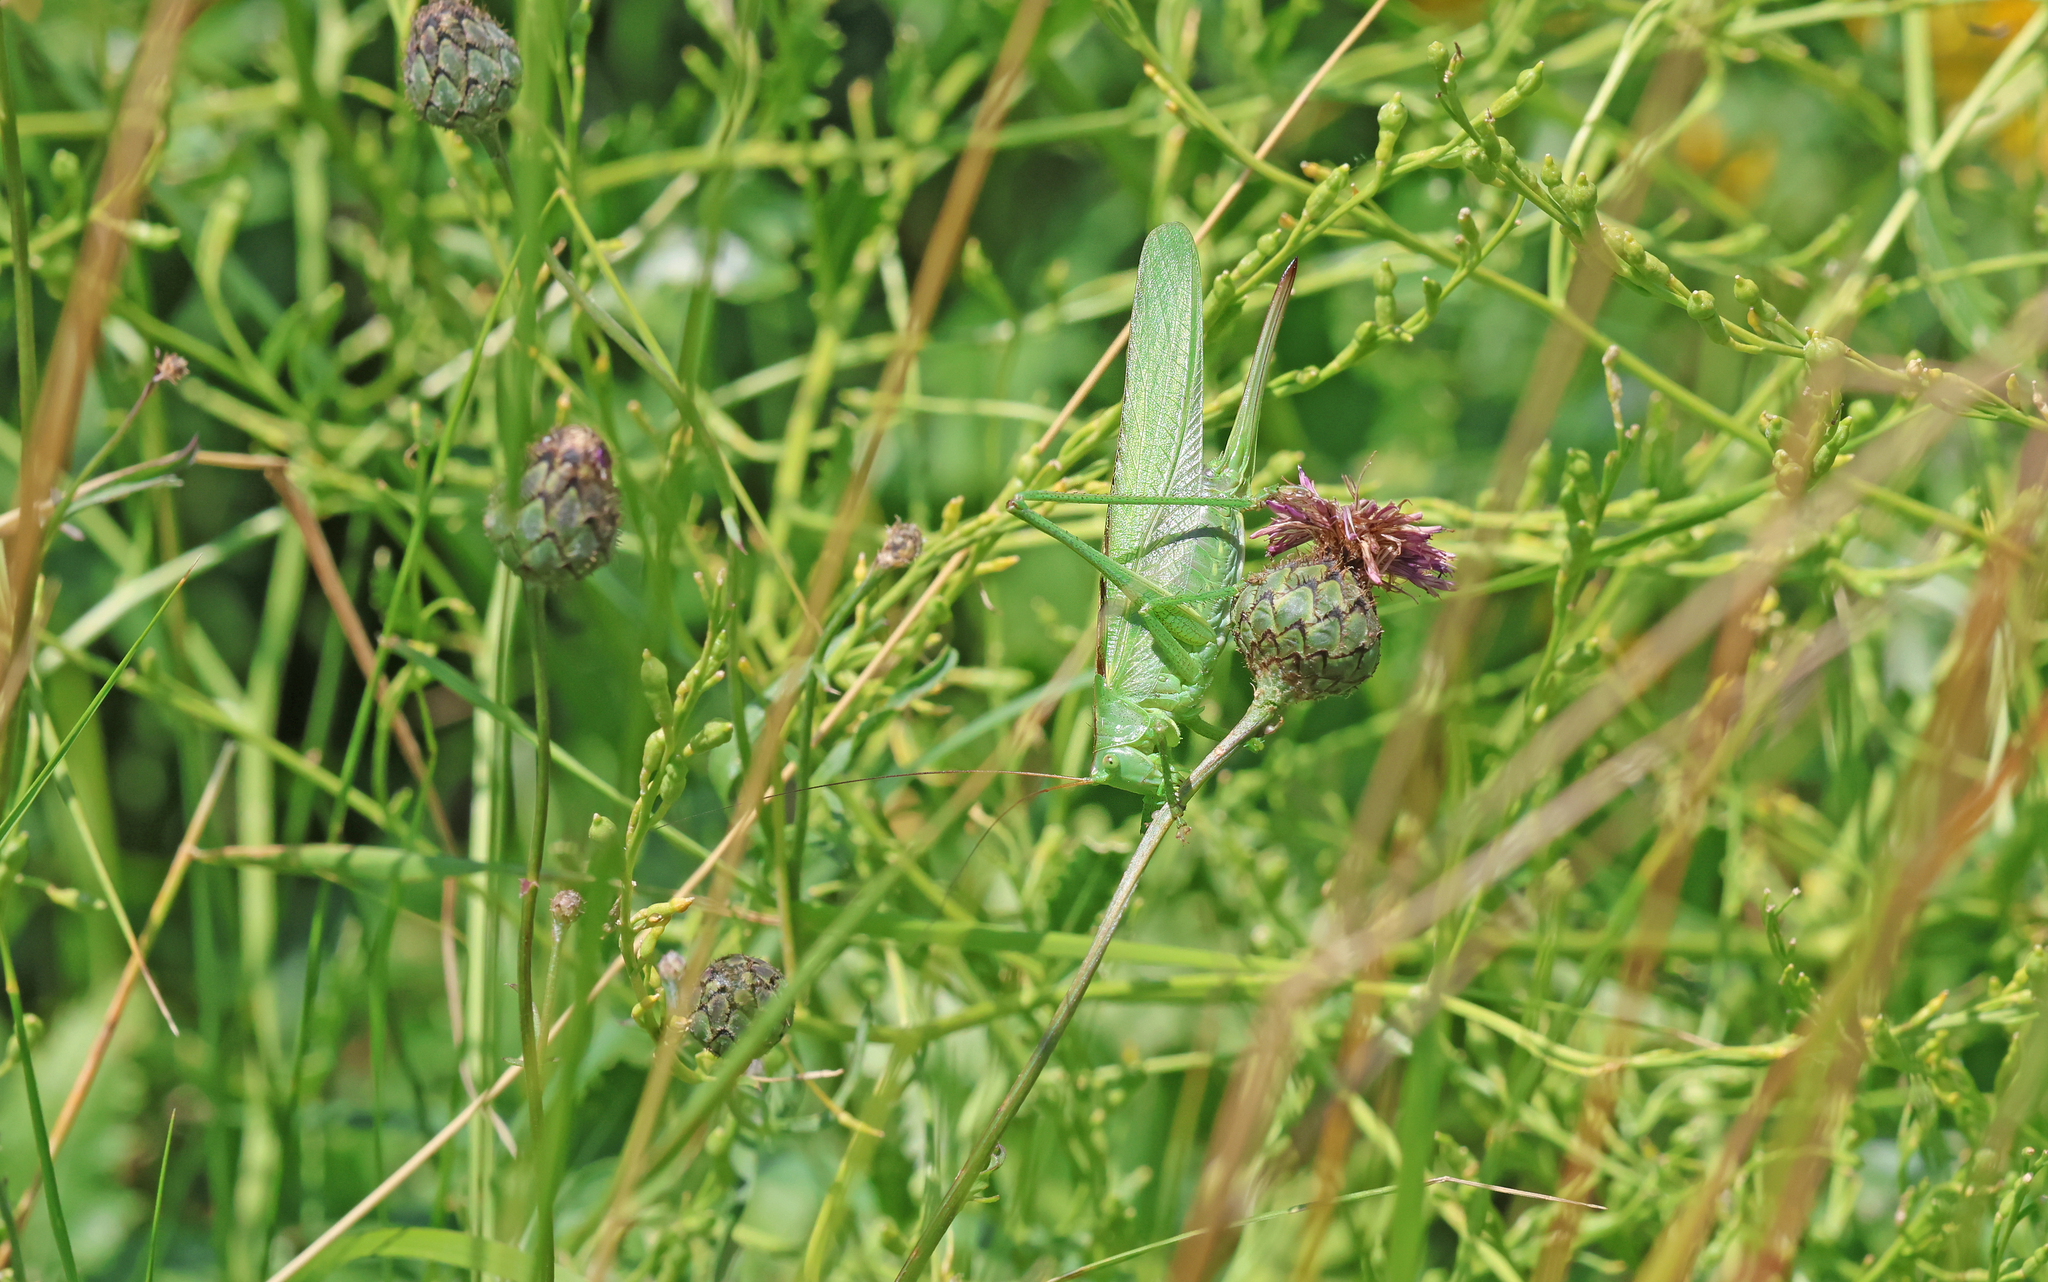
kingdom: Animalia
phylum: Arthropoda
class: Insecta
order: Orthoptera
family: Tettigoniidae
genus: Tettigonia
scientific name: Tettigonia viridissima
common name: Great green bush-cricket
